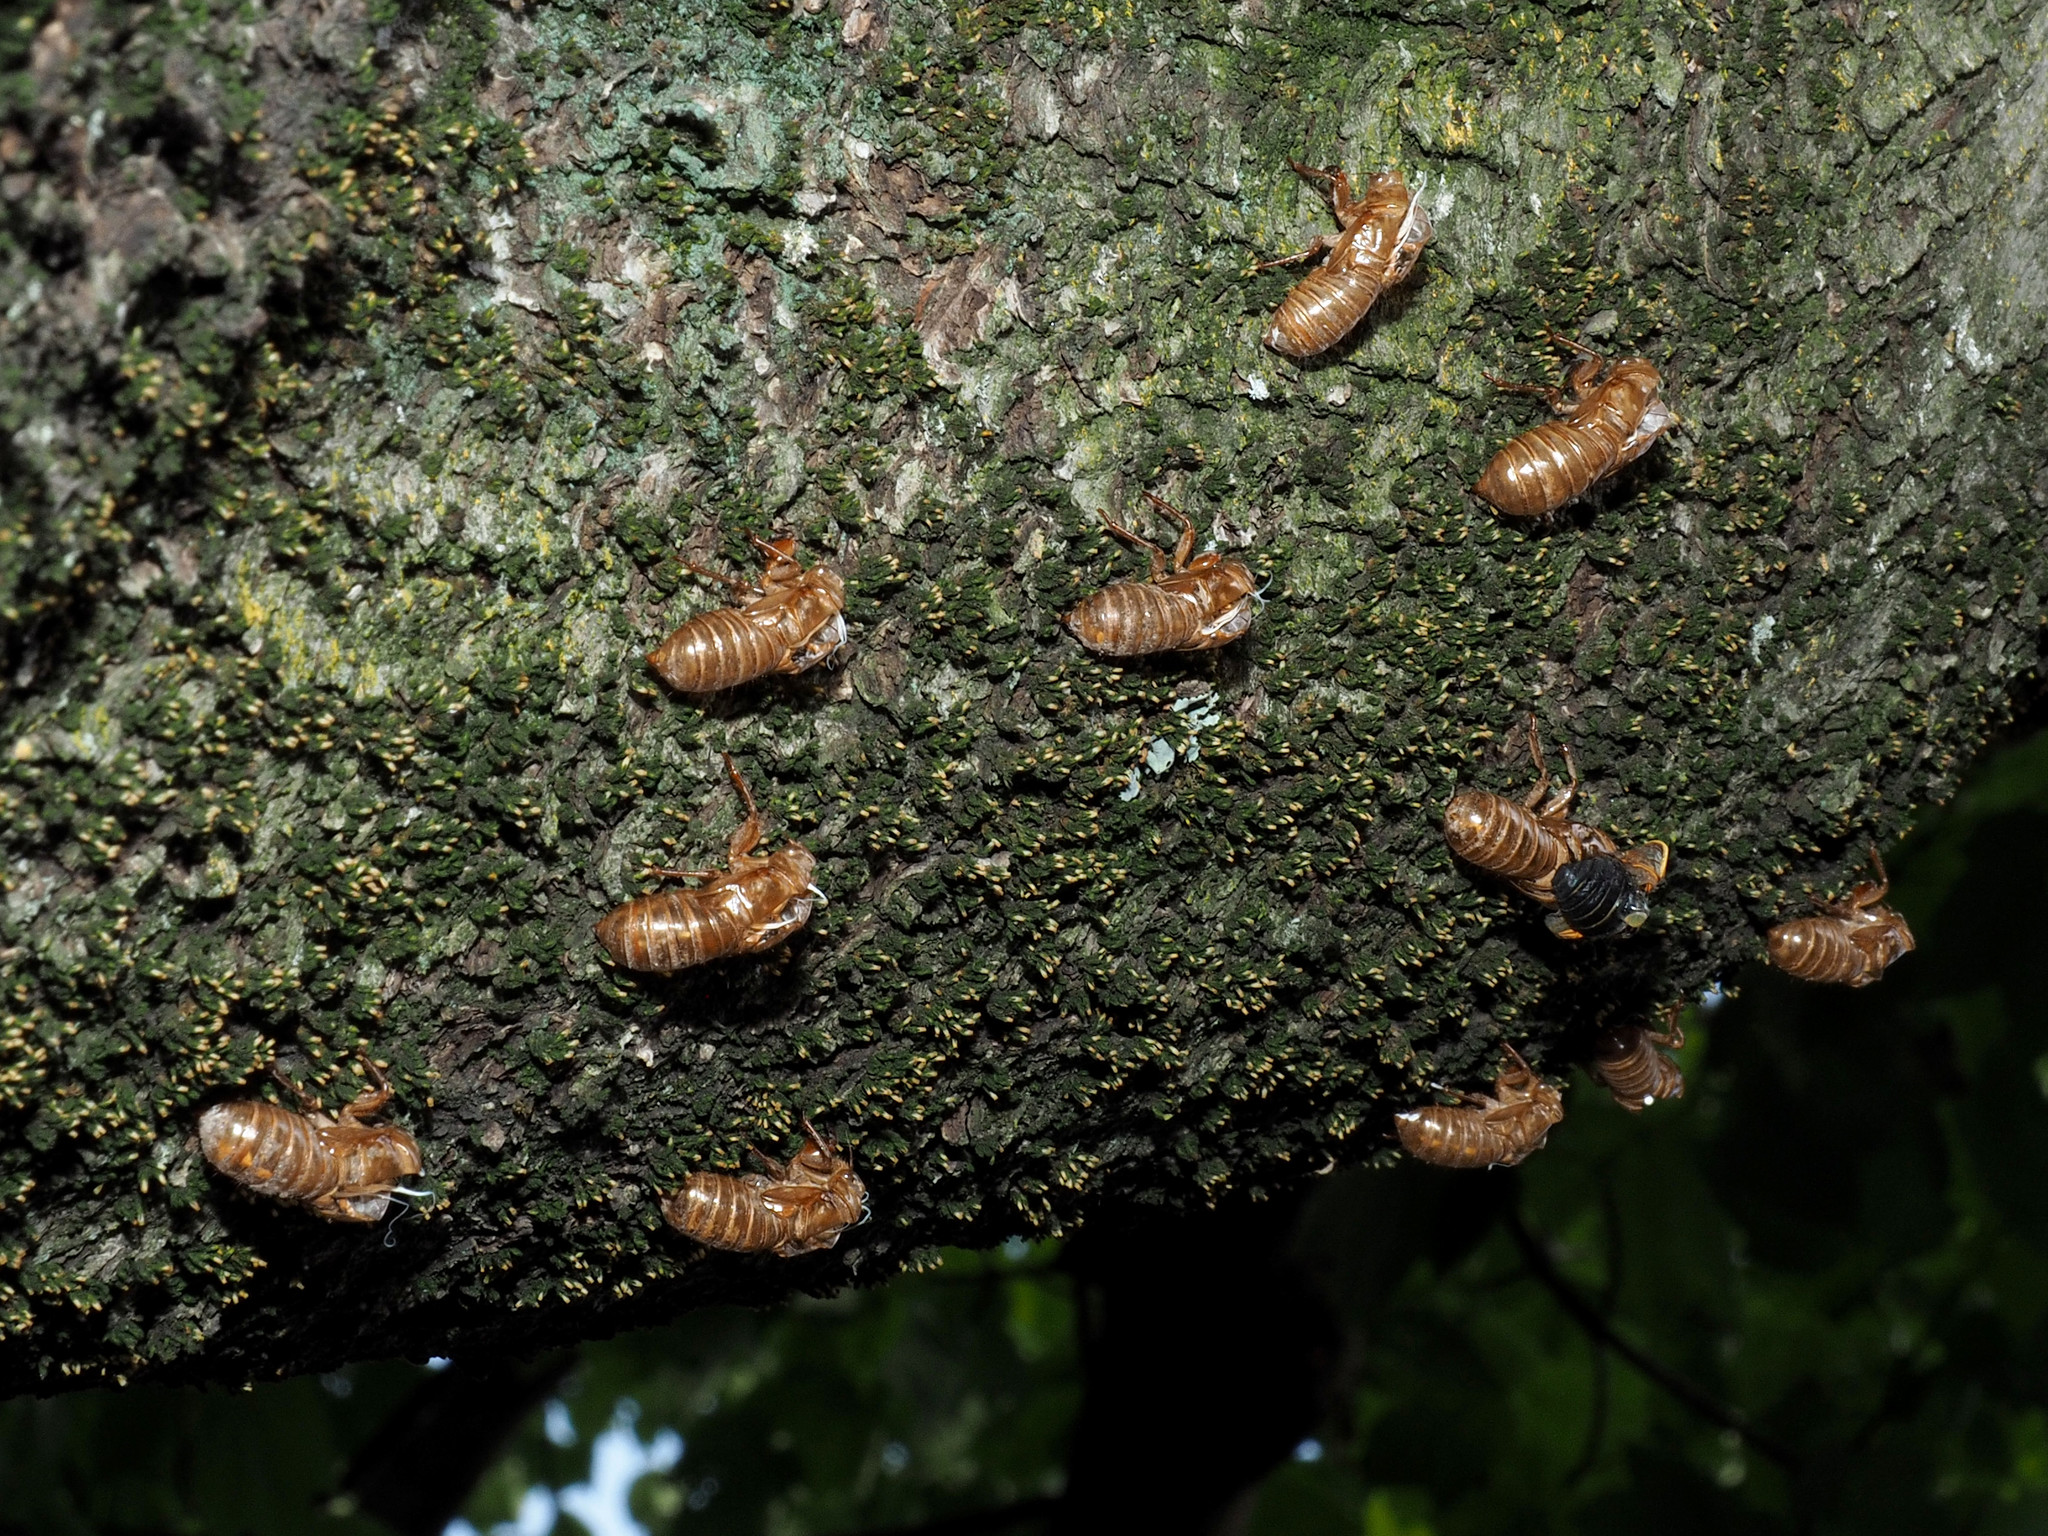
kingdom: Animalia
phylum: Arthropoda
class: Insecta
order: Hemiptera
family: Cicadidae
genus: Magicicada
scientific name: Magicicada
